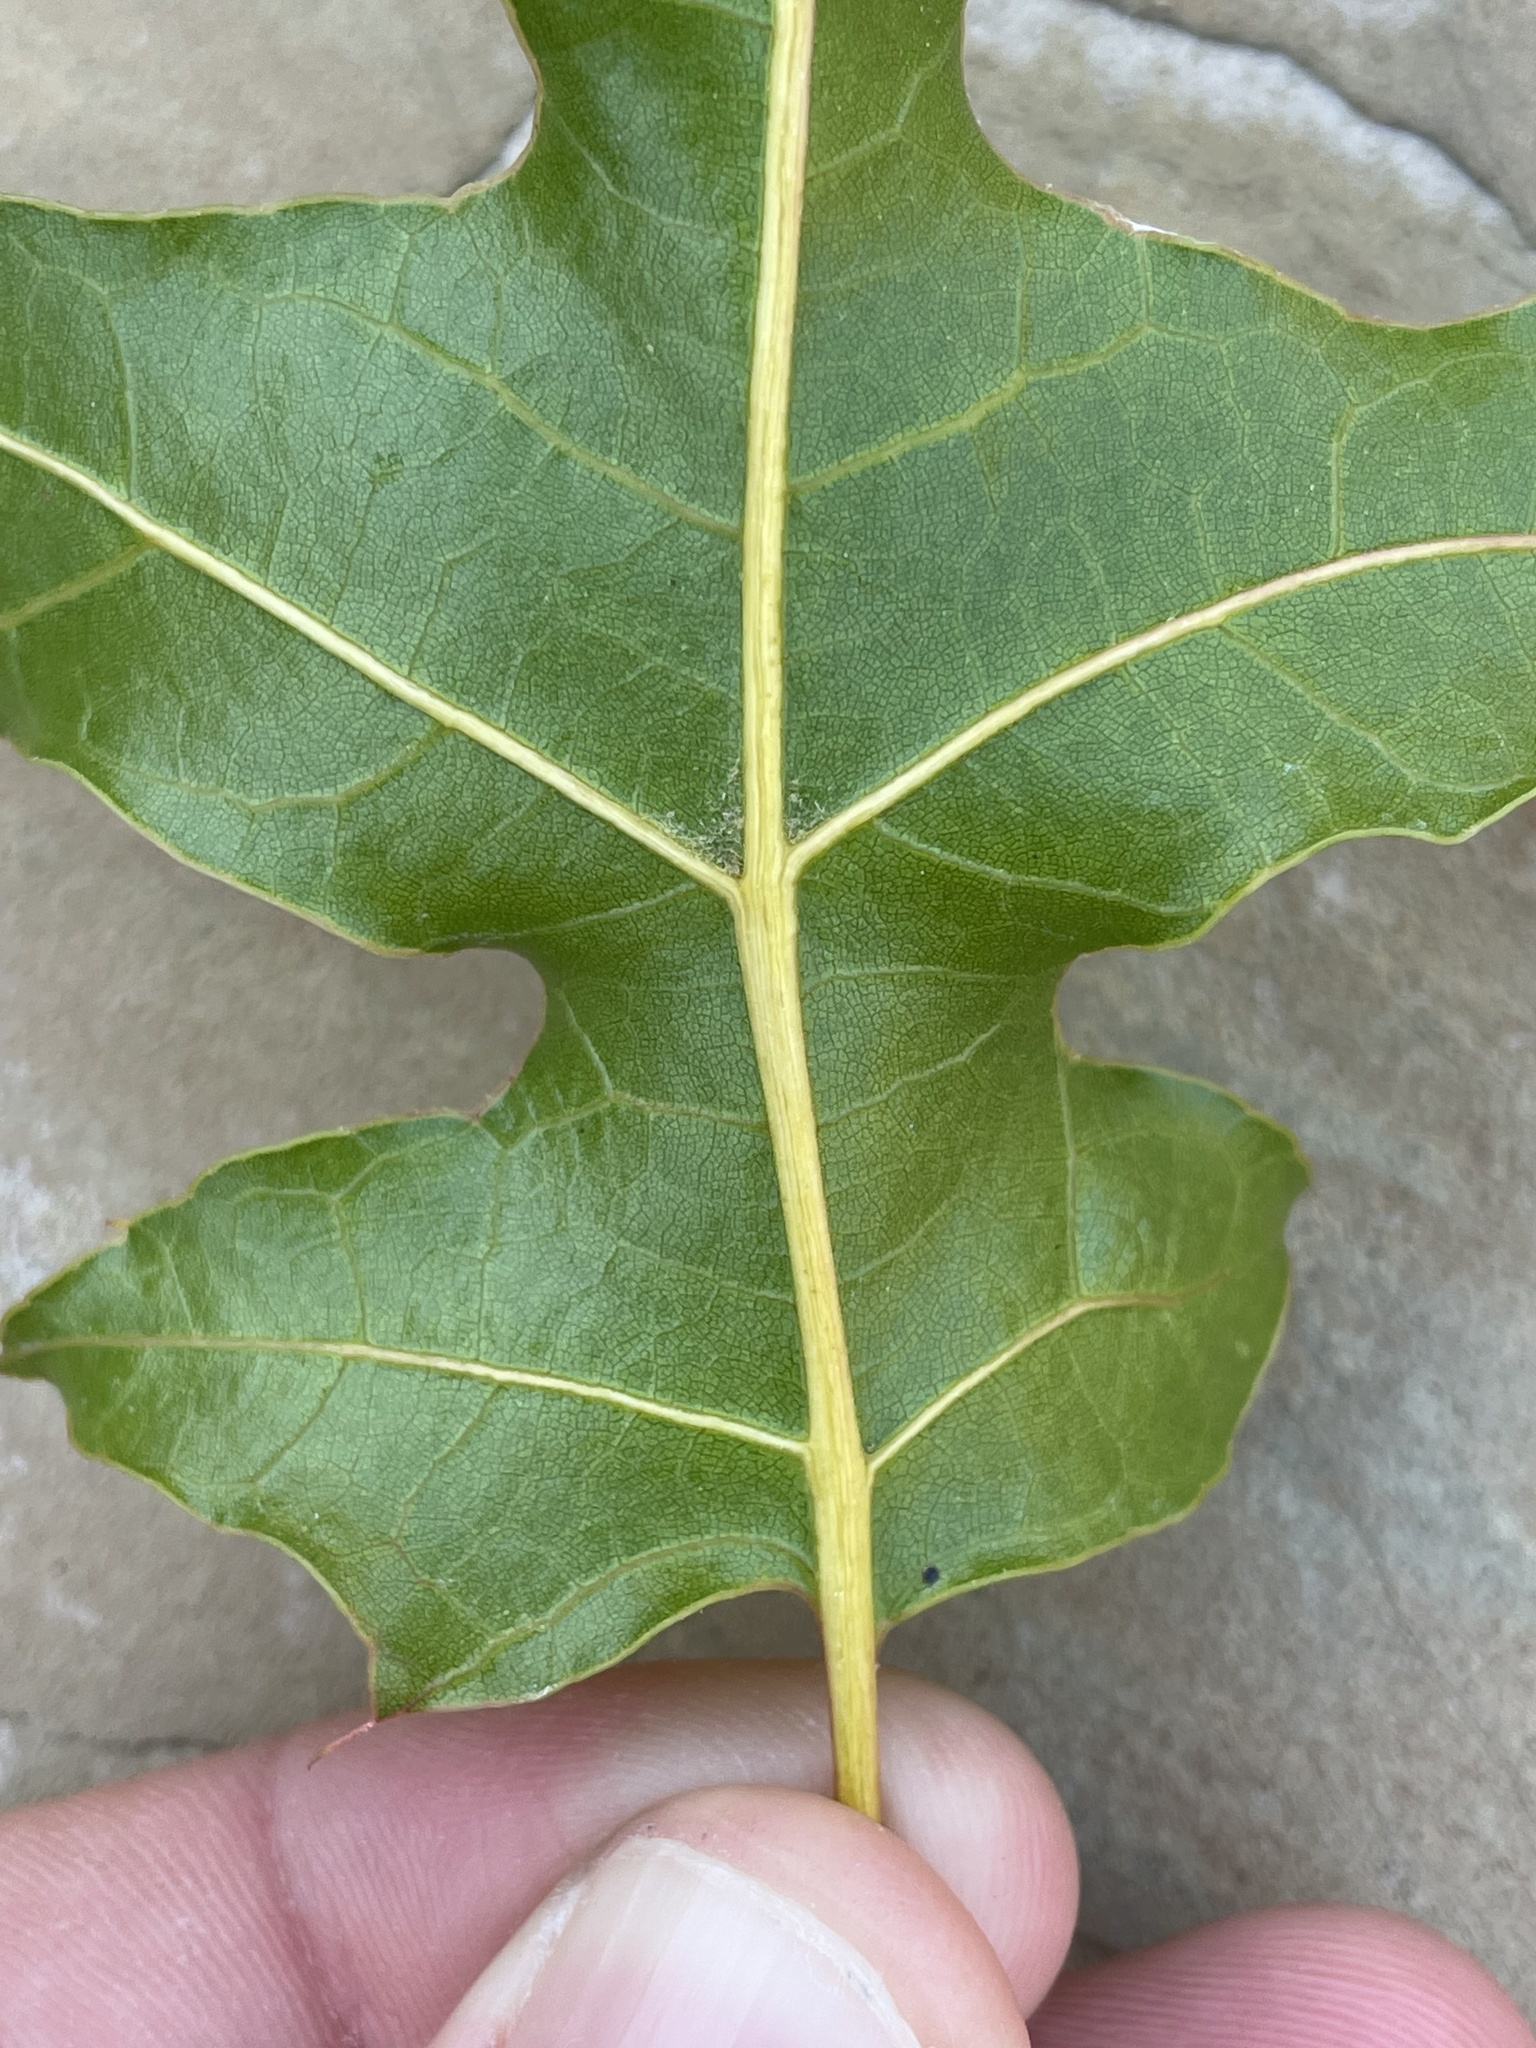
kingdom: Plantae
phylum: Tracheophyta
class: Magnoliopsida
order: Fagales
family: Fagaceae
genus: Quercus
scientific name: Quercus buckleyi
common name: Buckley oak
